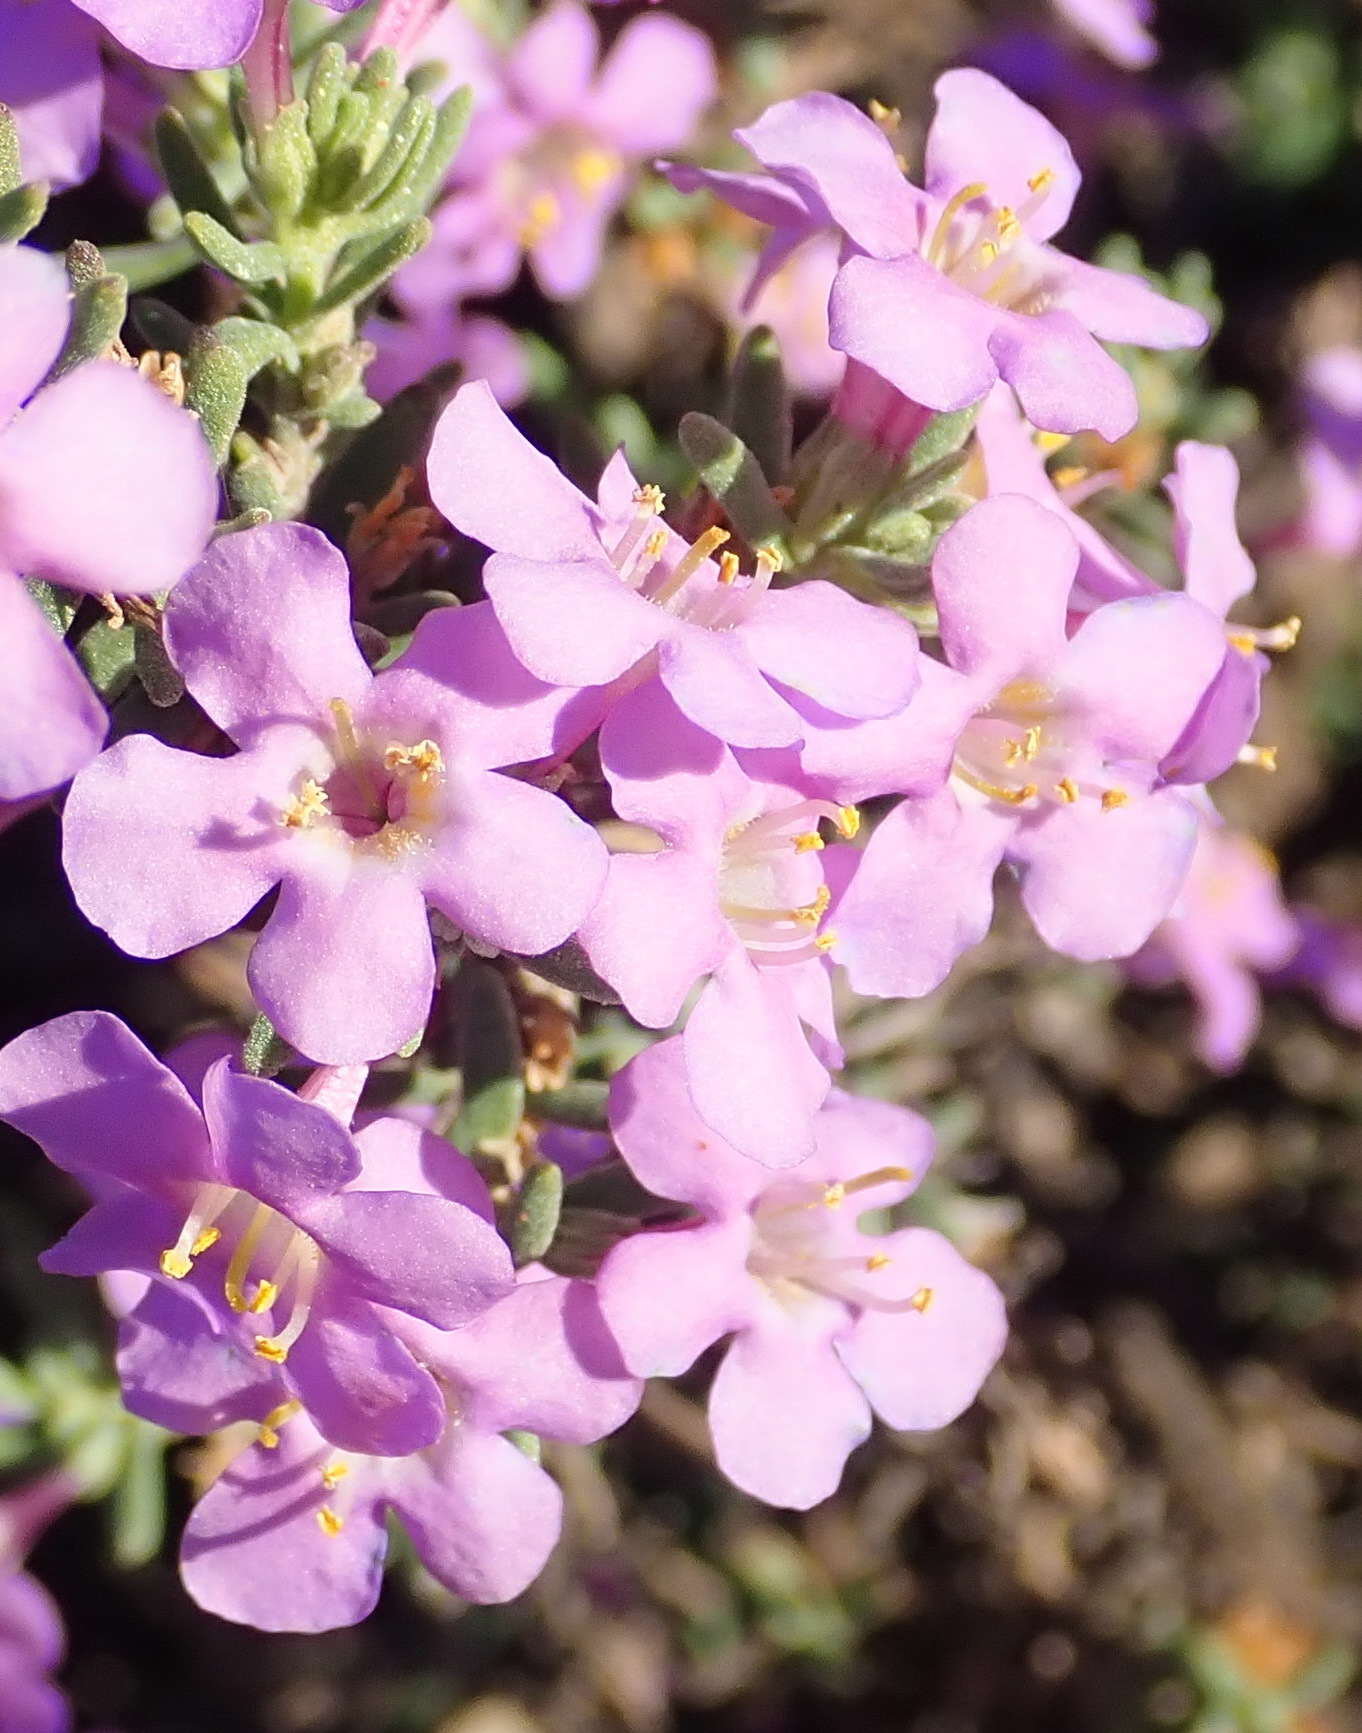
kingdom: Plantae
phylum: Tracheophyta
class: Magnoliopsida
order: Lamiales
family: Scrophulariaceae
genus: Chaenostoma
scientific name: Chaenostoma revolutum
